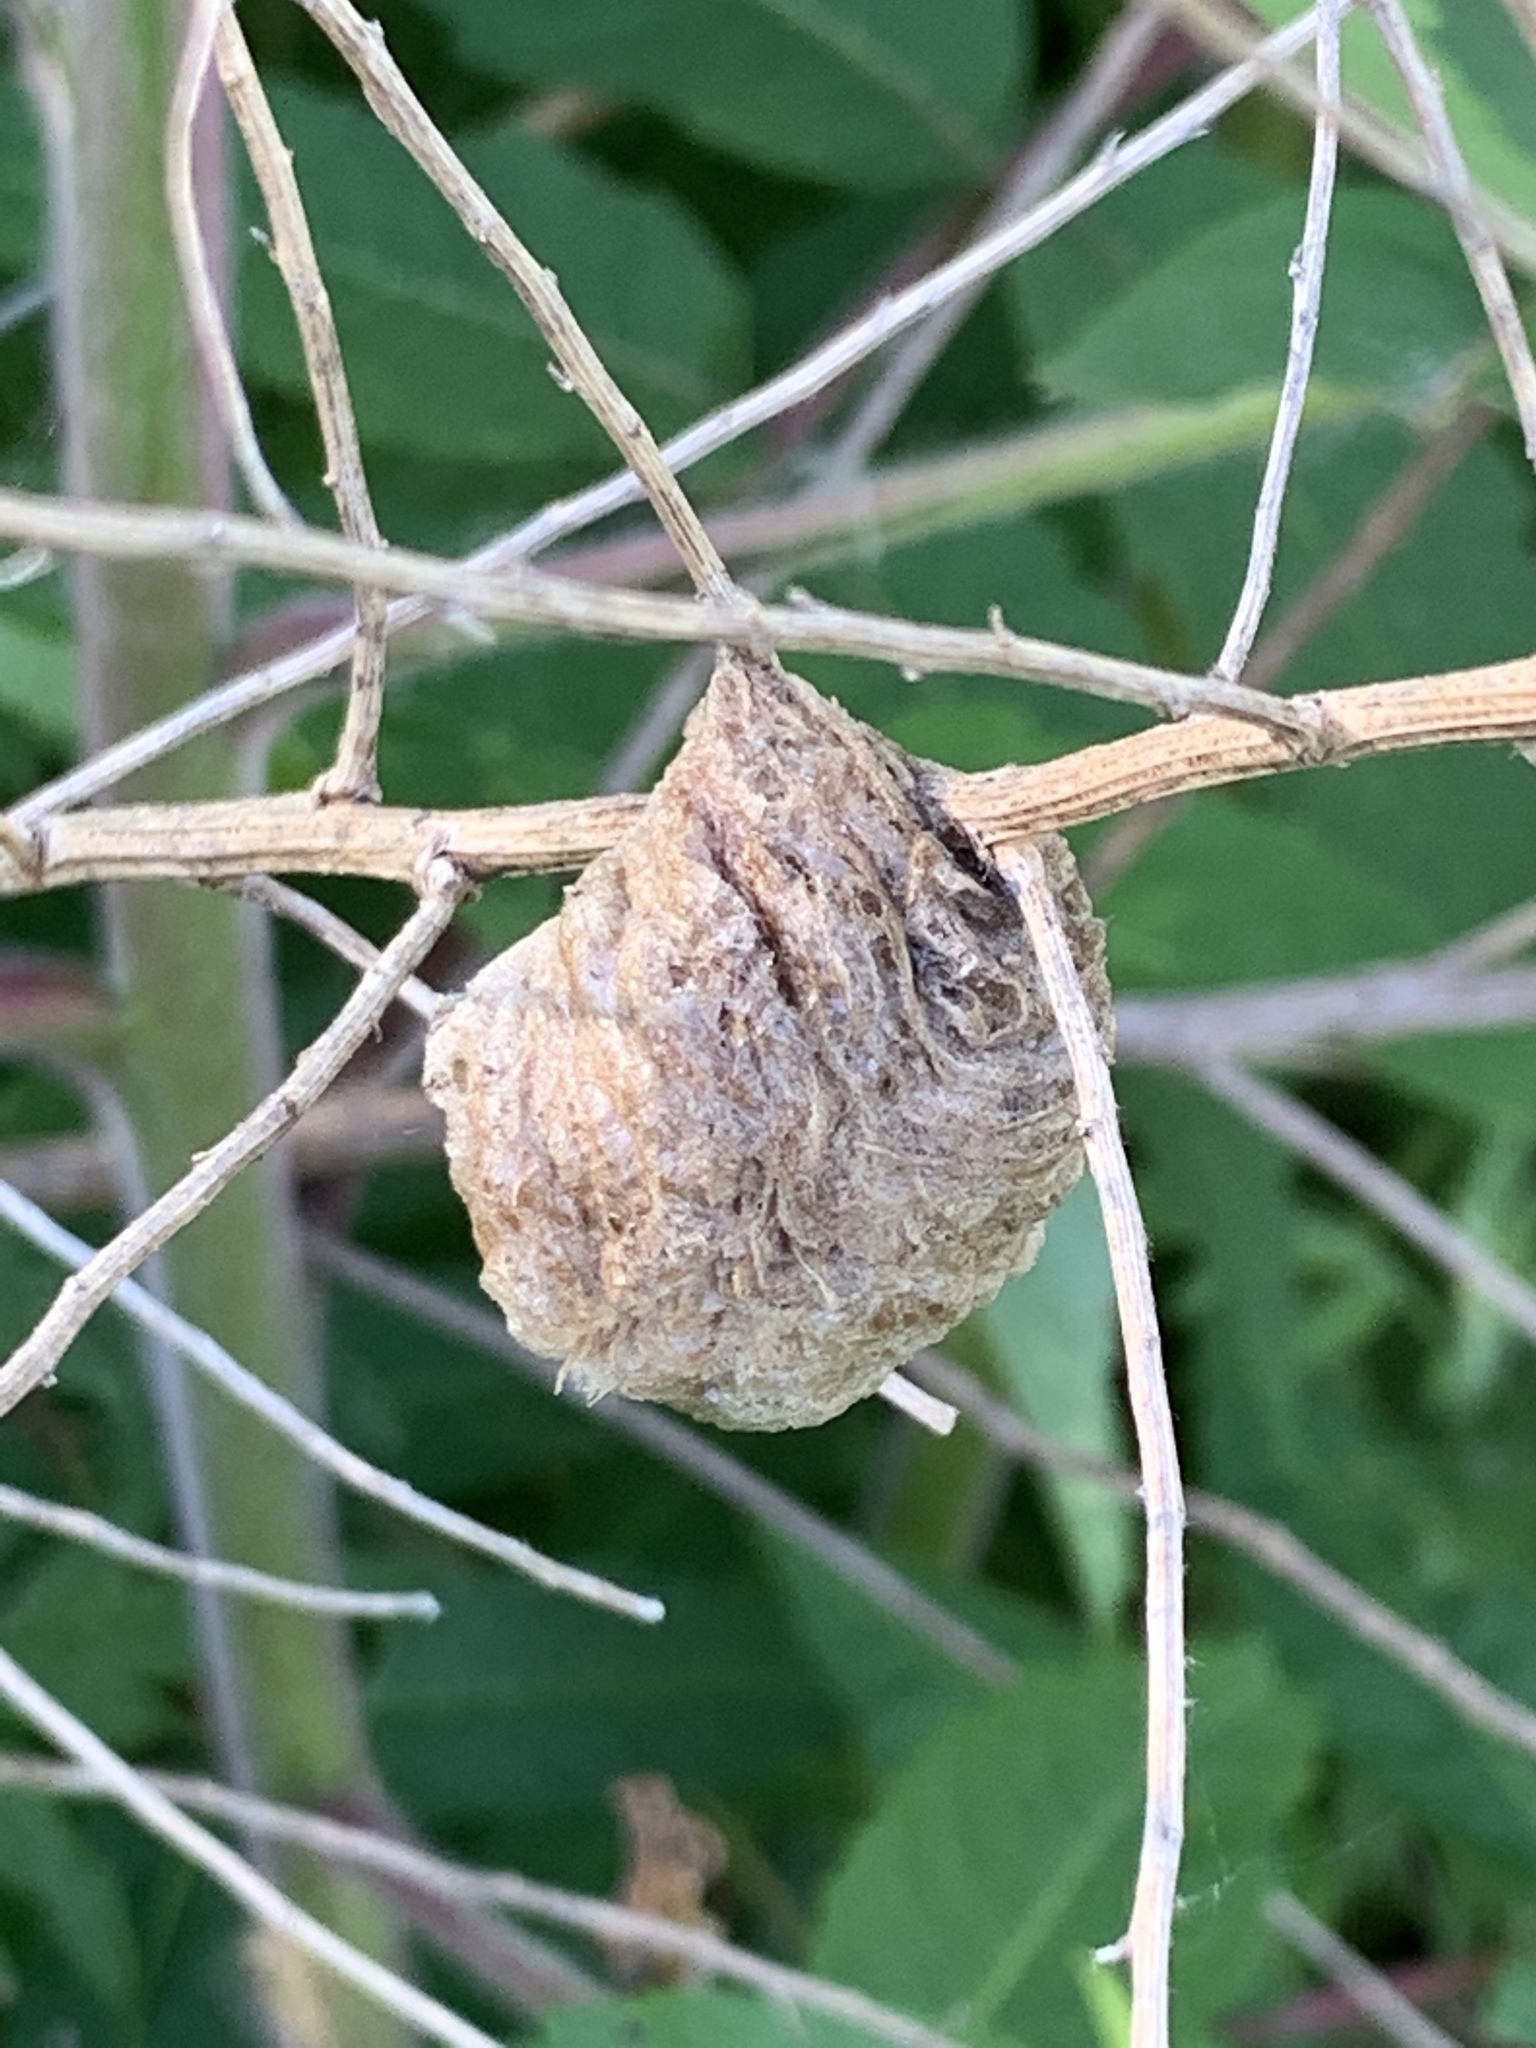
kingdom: Animalia
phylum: Arthropoda
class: Insecta
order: Mantodea
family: Mantidae
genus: Tenodera
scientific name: Tenodera sinensis
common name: Chinese mantis
